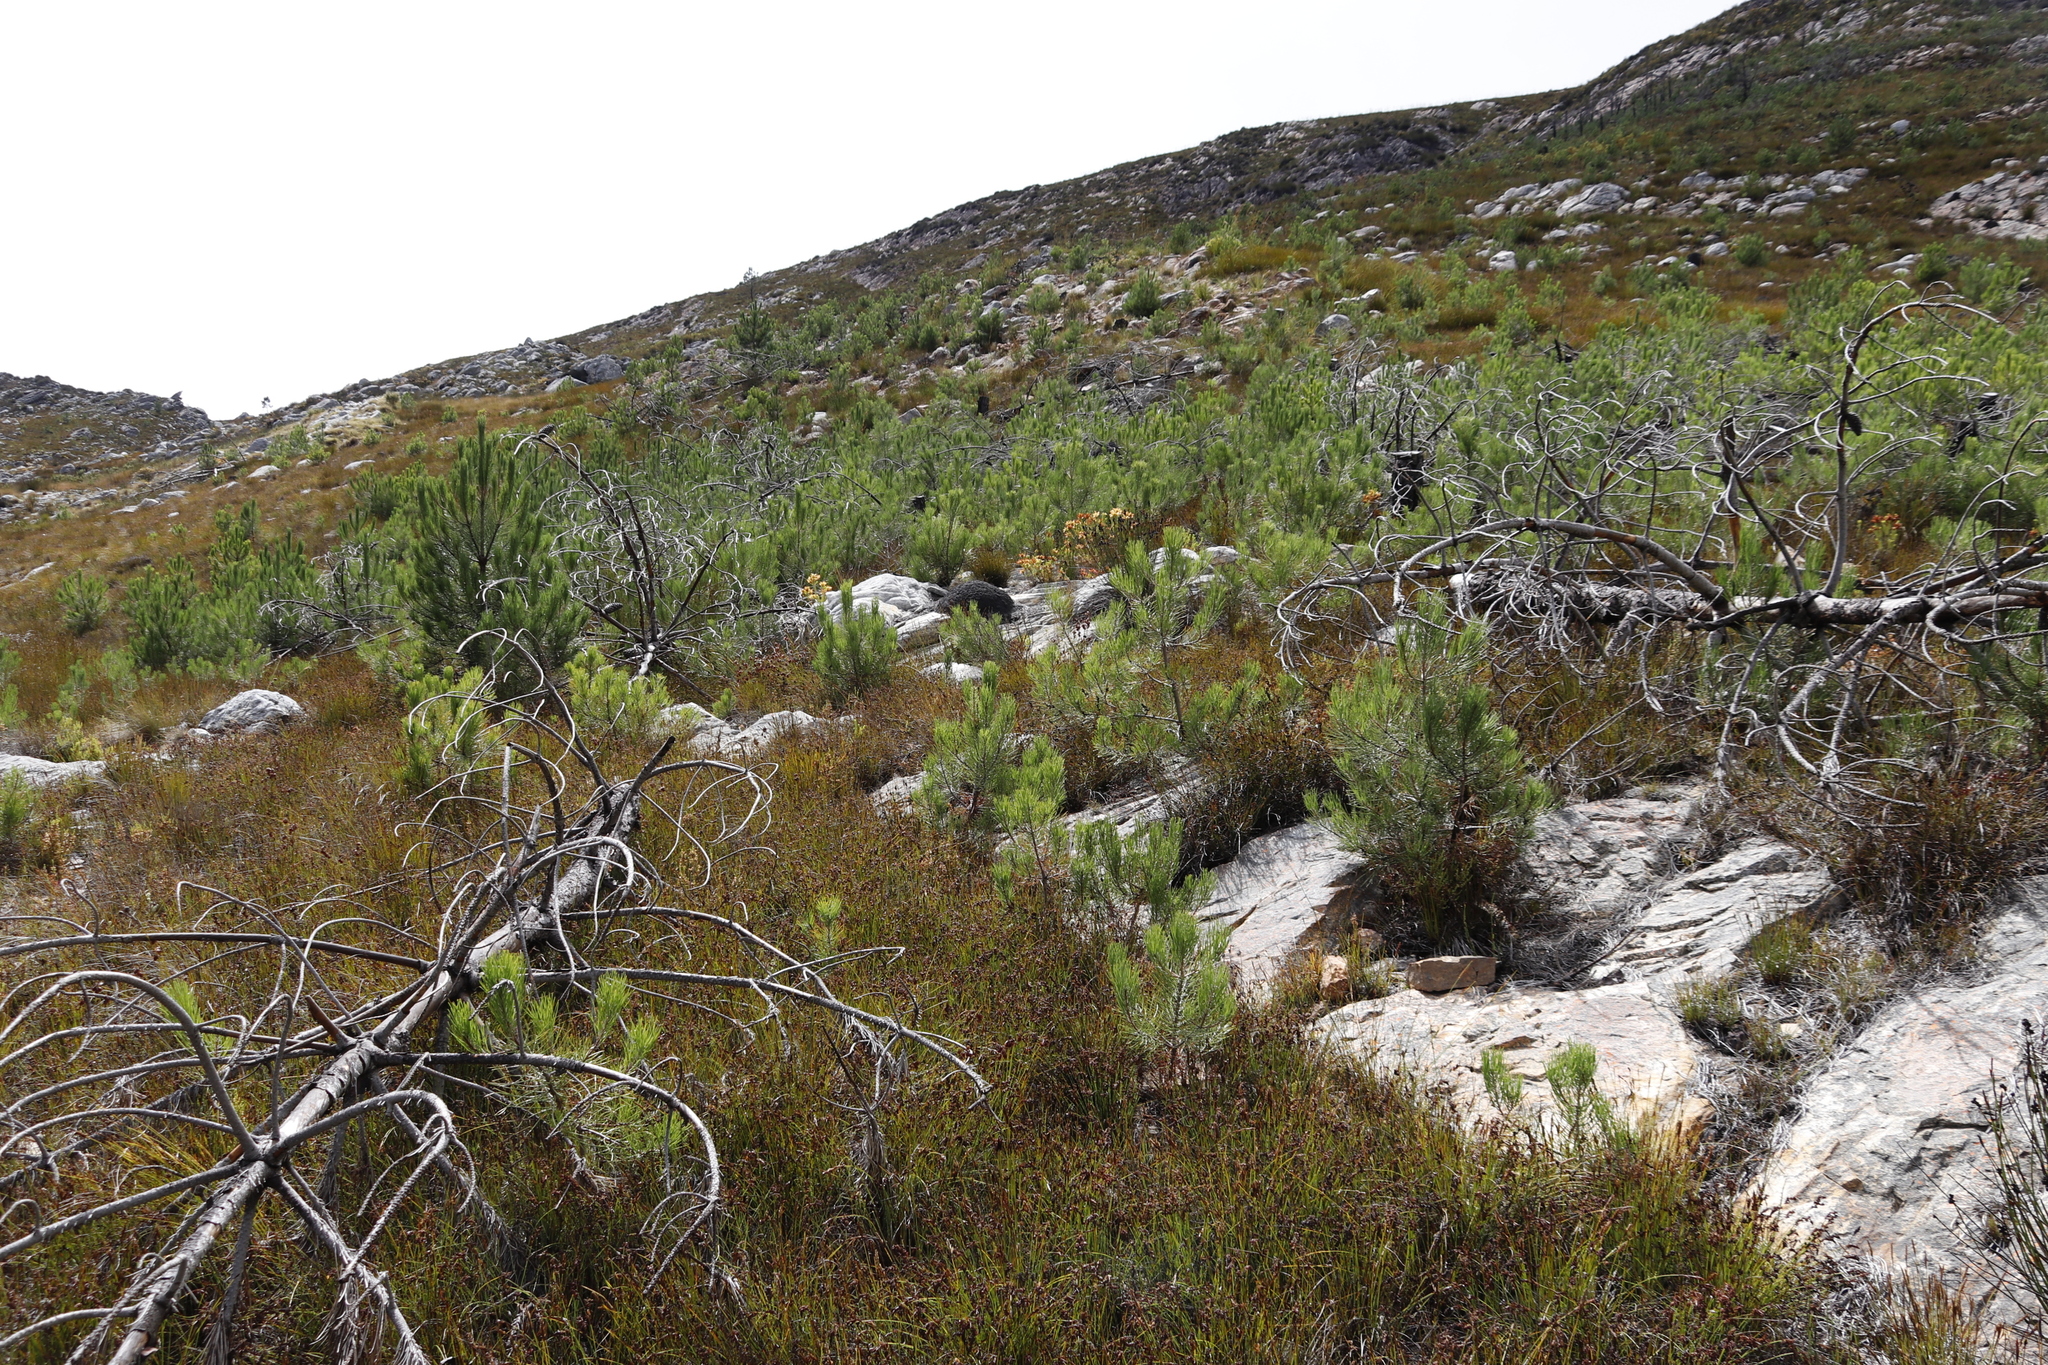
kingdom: Plantae
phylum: Tracheophyta
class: Pinopsida
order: Pinales
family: Pinaceae
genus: Pinus
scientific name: Pinus radiata
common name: Monterey pine
